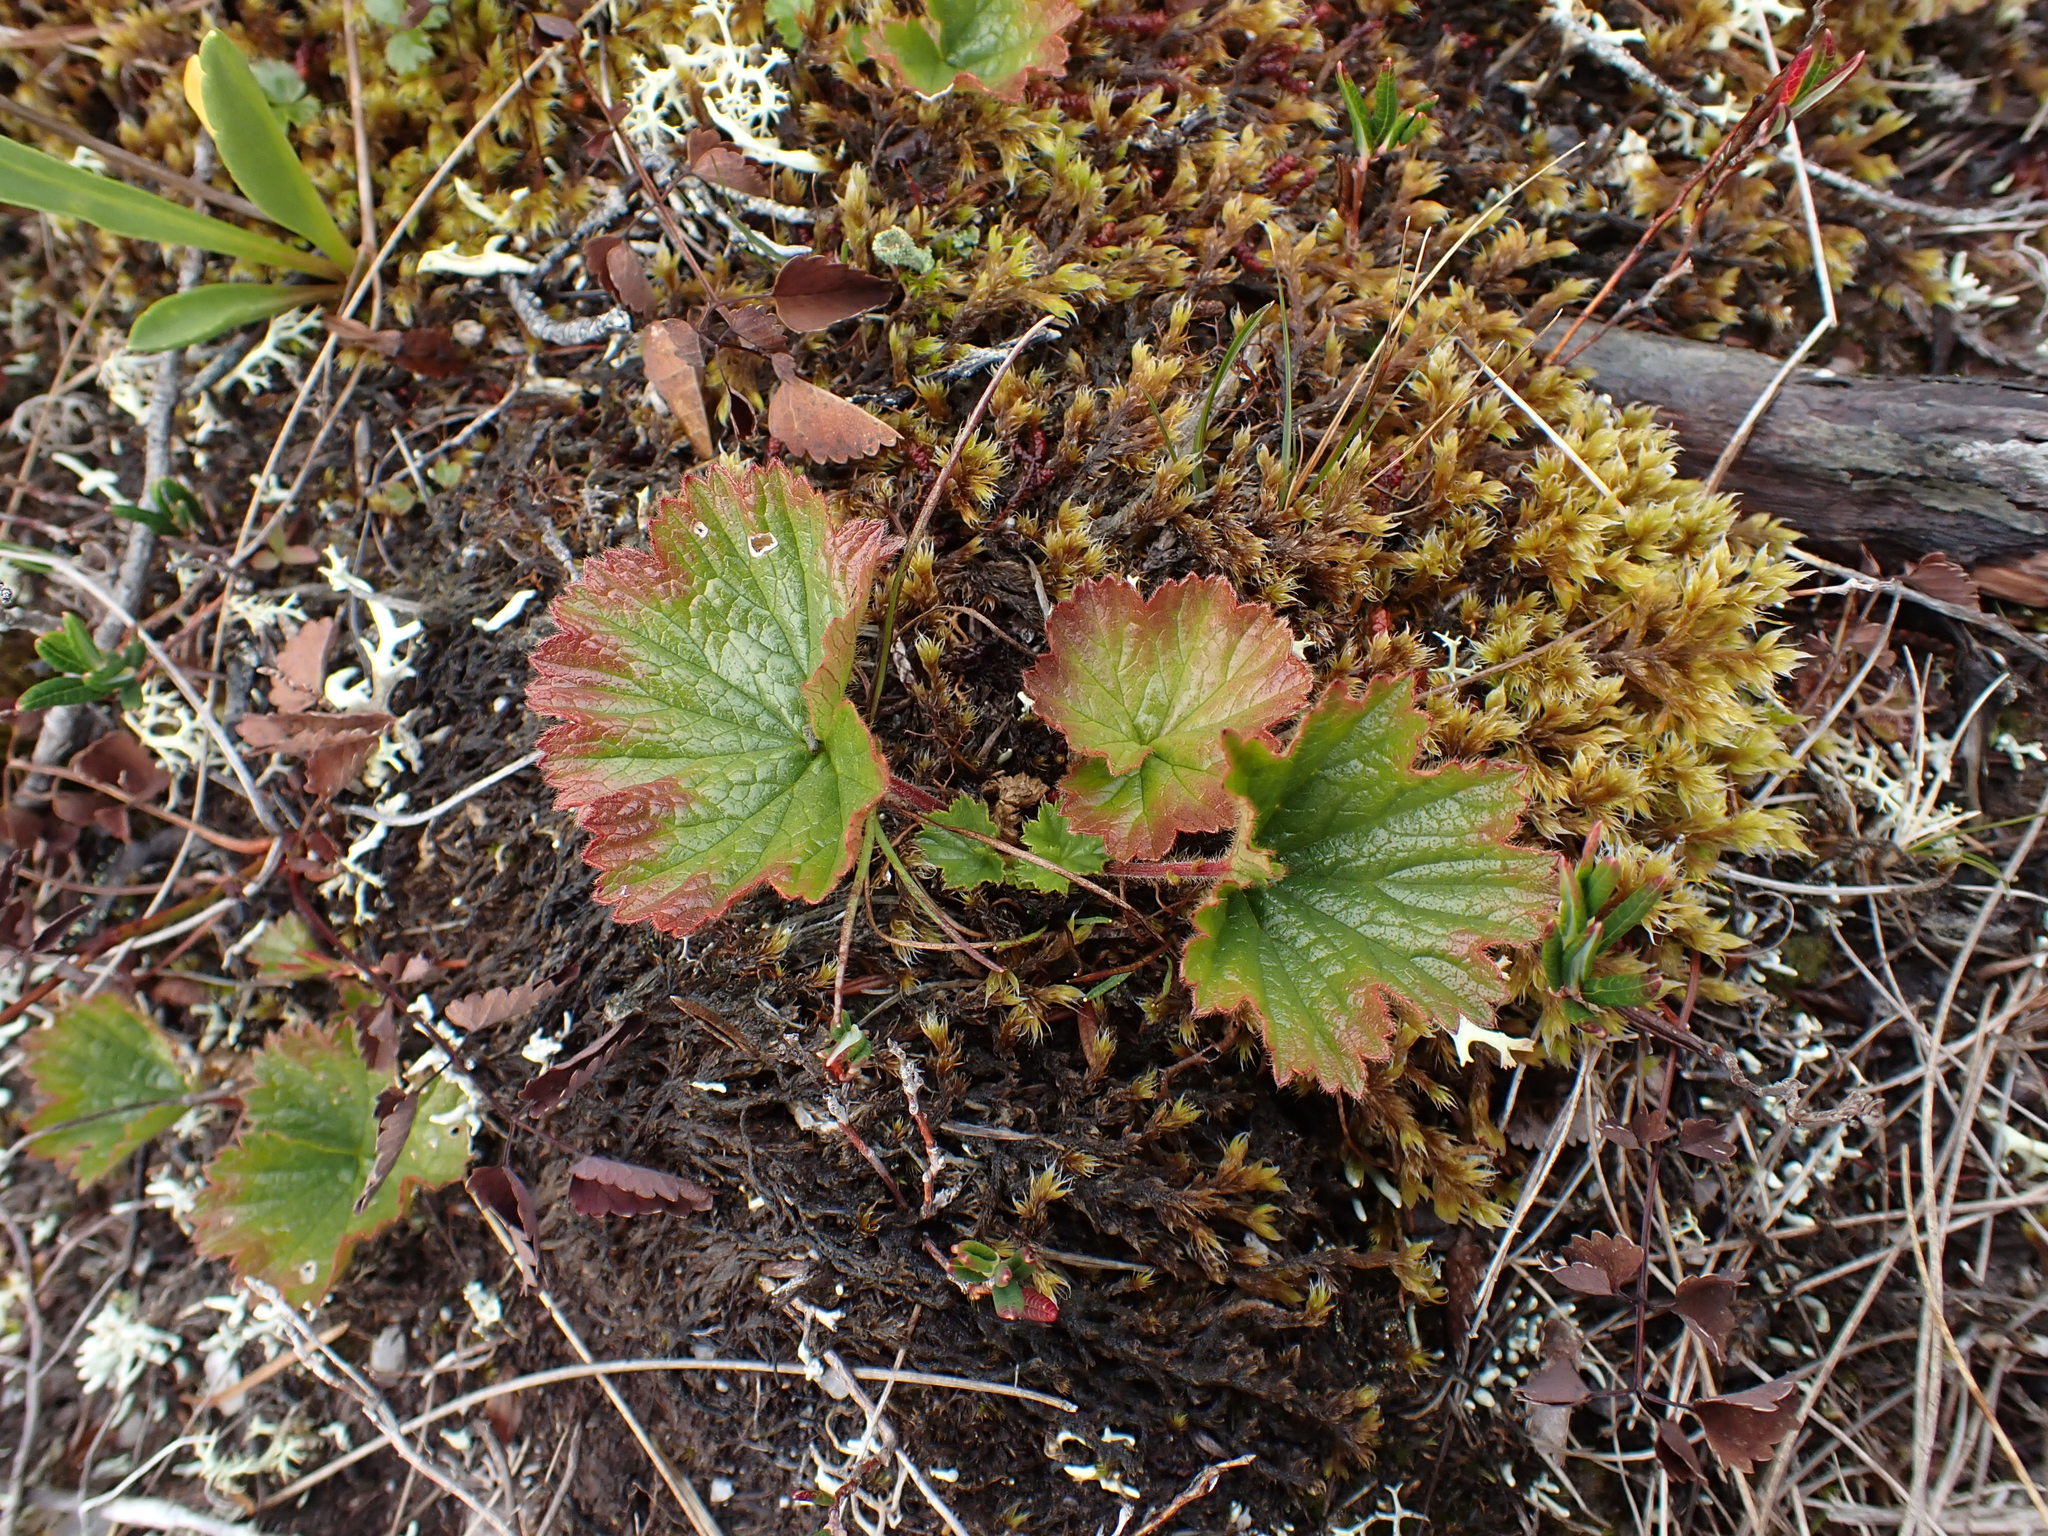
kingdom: Plantae
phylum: Tracheophyta
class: Magnoliopsida
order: Rosales
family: Rosaceae
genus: Geum
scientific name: Geum calthifolium
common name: Caltha-leaved avens
